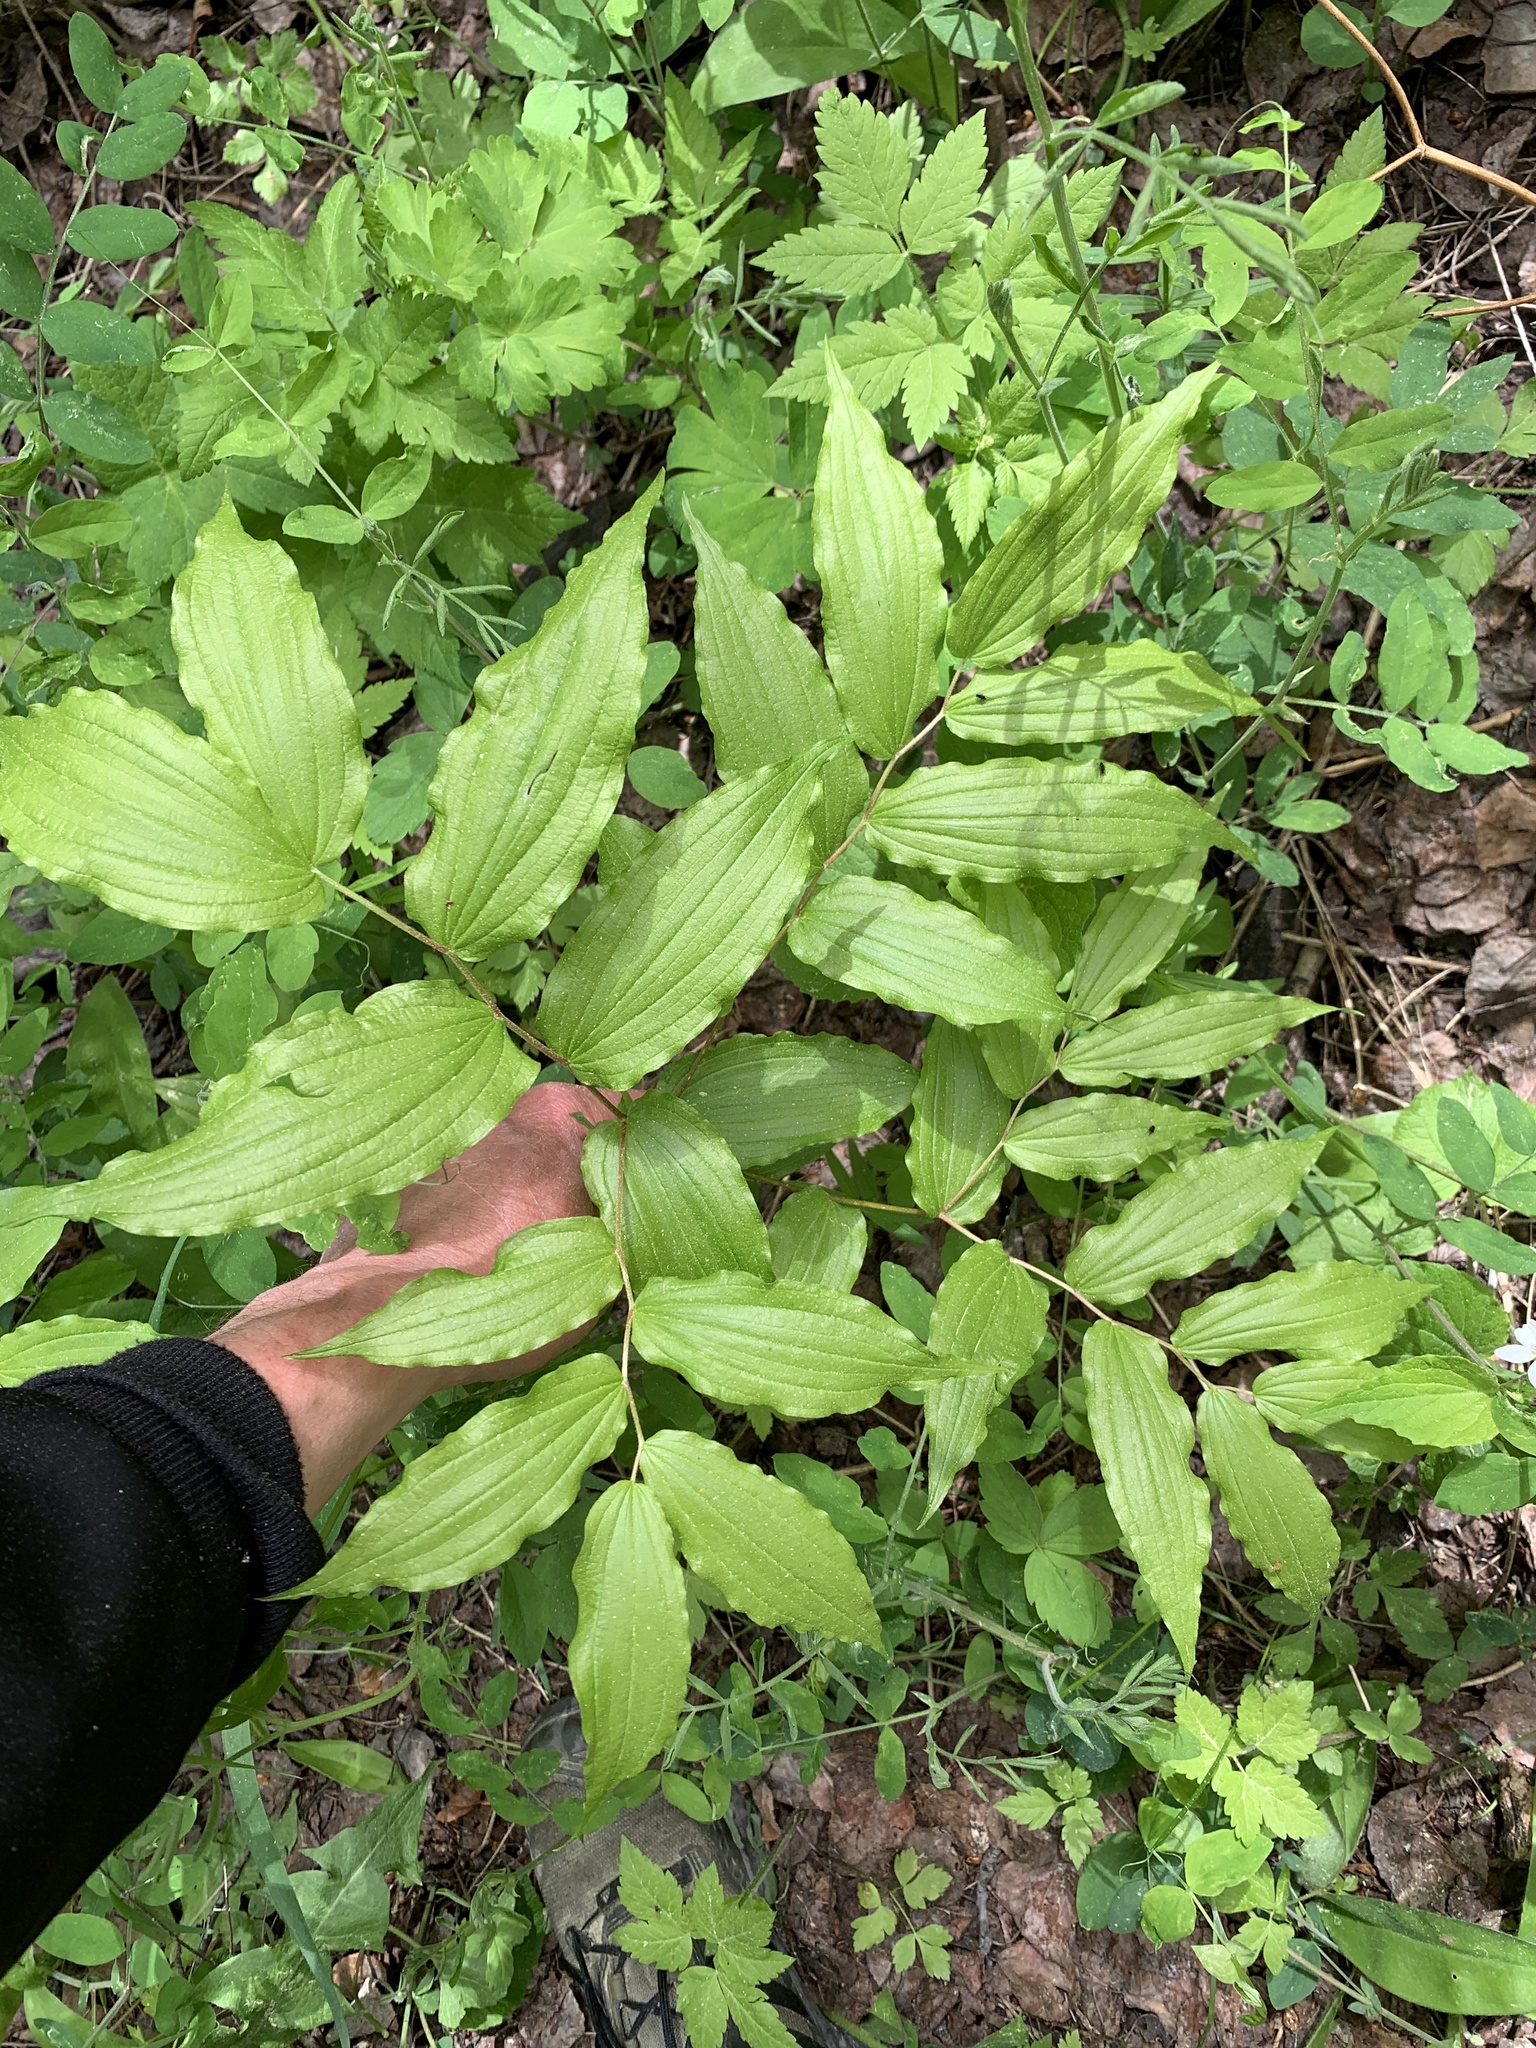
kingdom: Plantae
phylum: Tracheophyta
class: Liliopsida
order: Liliales
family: Liliaceae
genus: Prosartes
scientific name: Prosartes hookeri
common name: Fairy-bells
